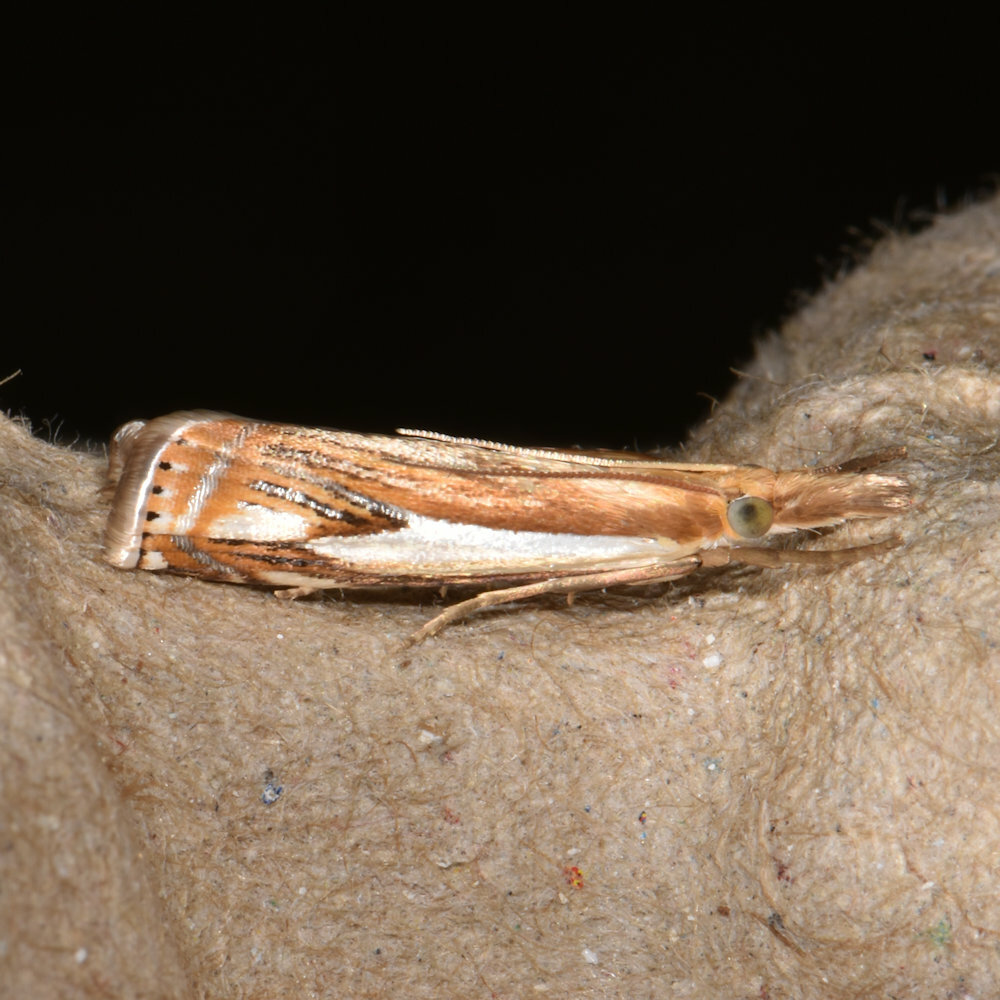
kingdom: Animalia
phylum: Arthropoda
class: Insecta
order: Lepidoptera
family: Crambidae
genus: Crambus
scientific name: Crambus agitatellus
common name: Double-banded grass-veneer
